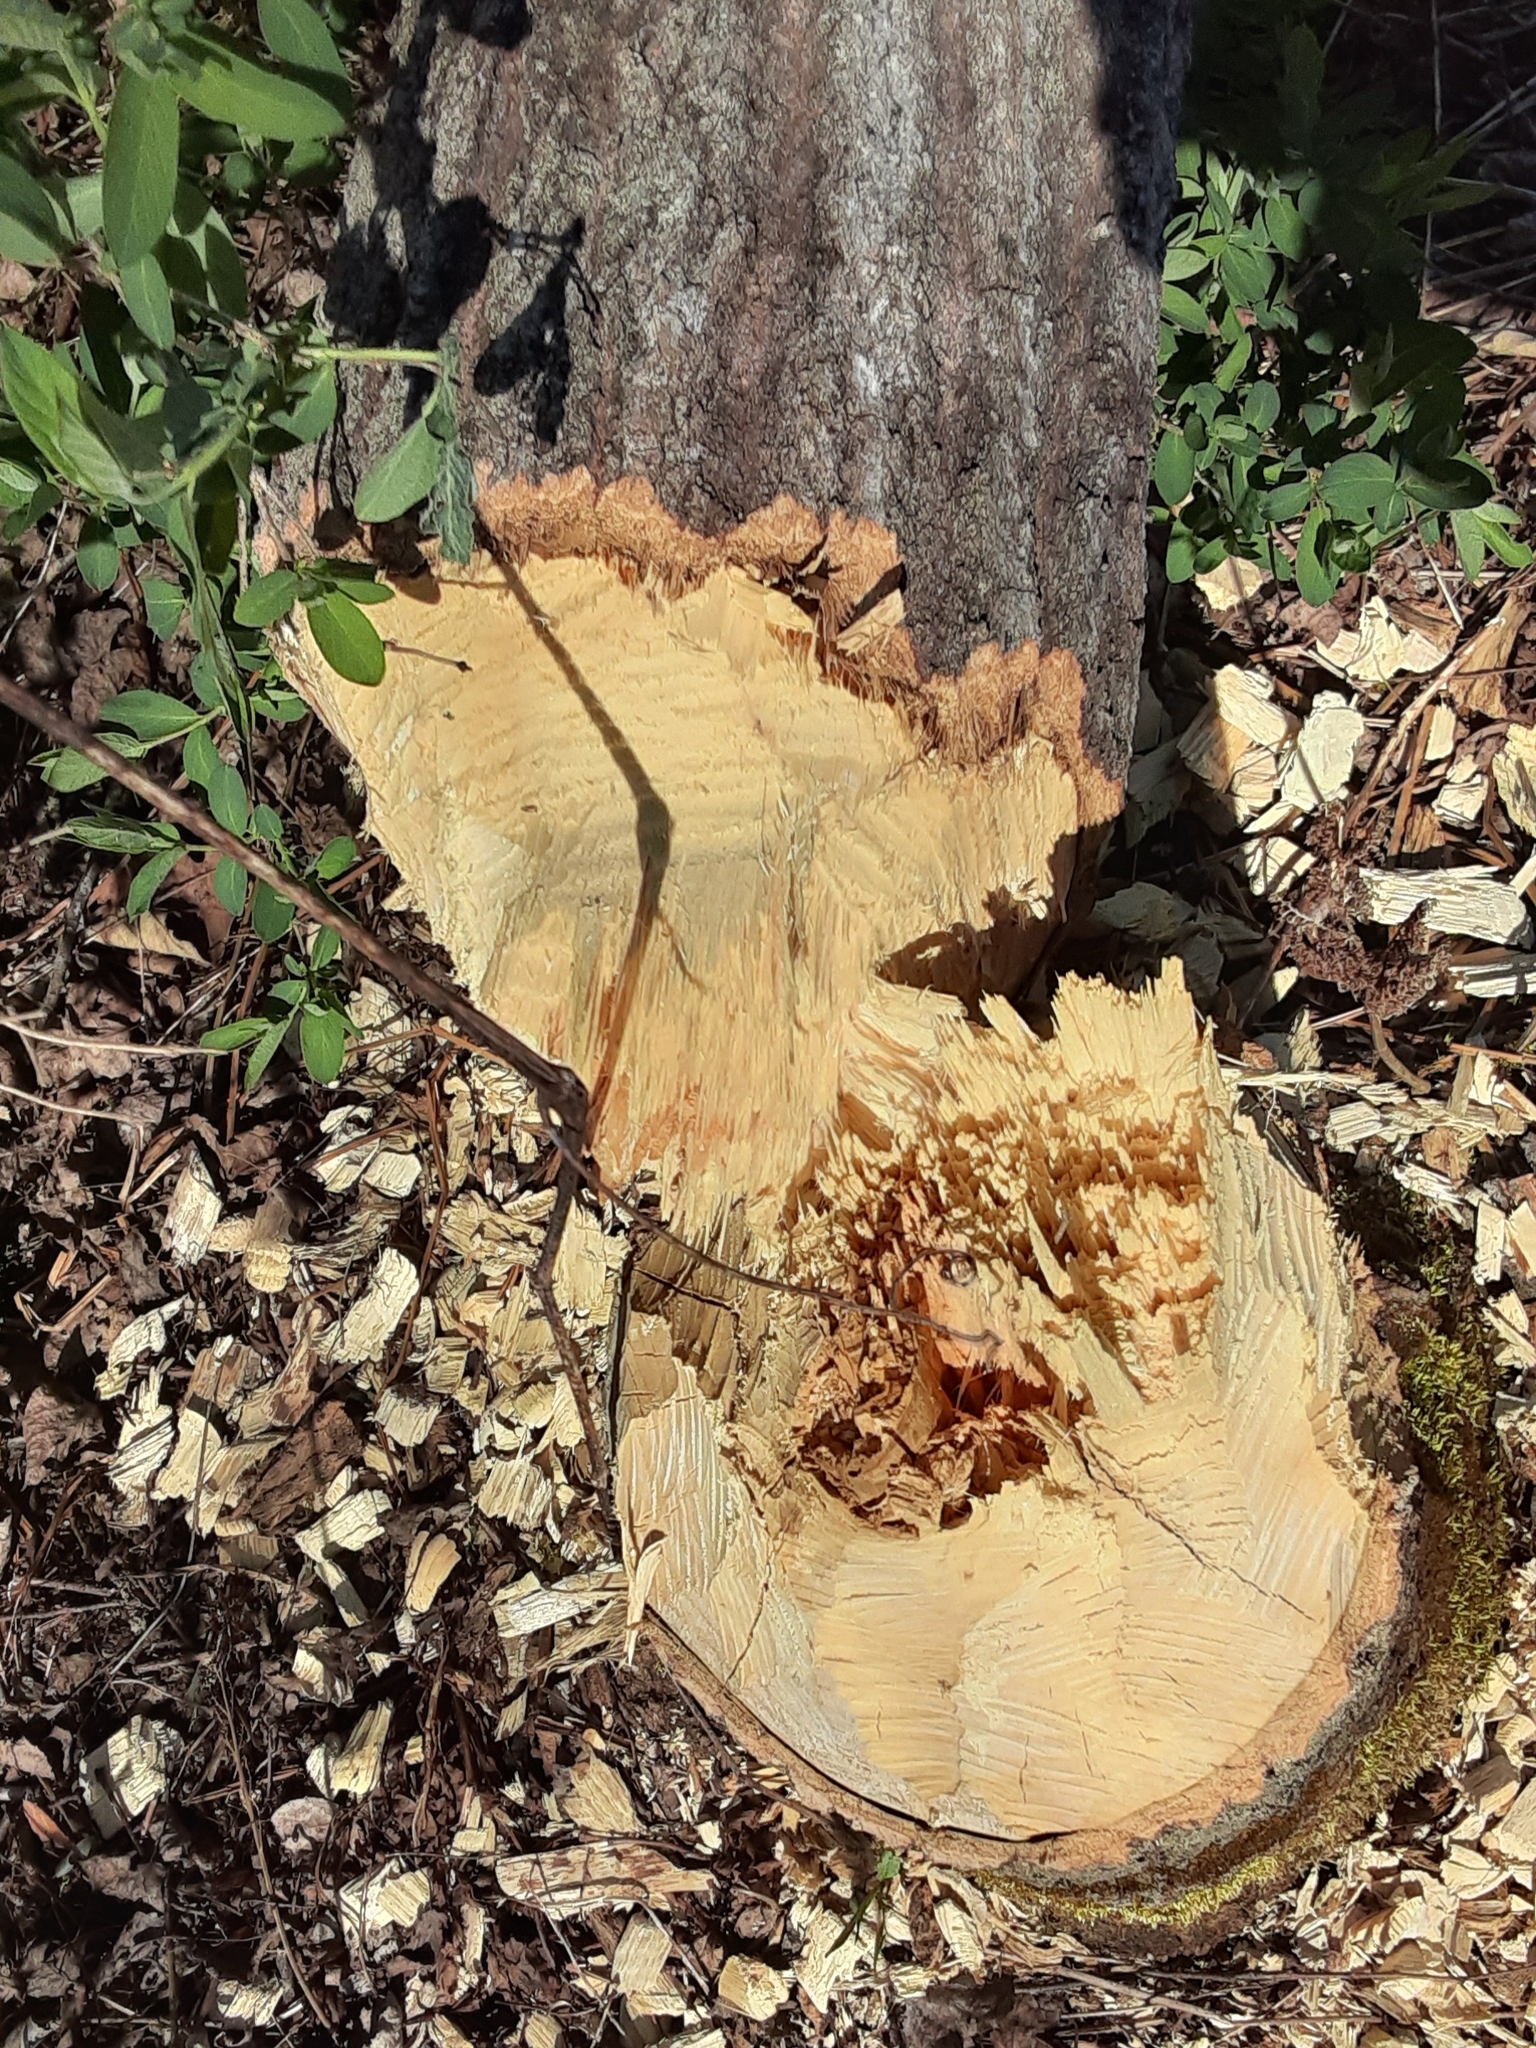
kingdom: Animalia
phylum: Chordata
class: Mammalia
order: Rodentia
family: Castoridae
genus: Castor
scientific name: Castor canadensis
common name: American beaver
